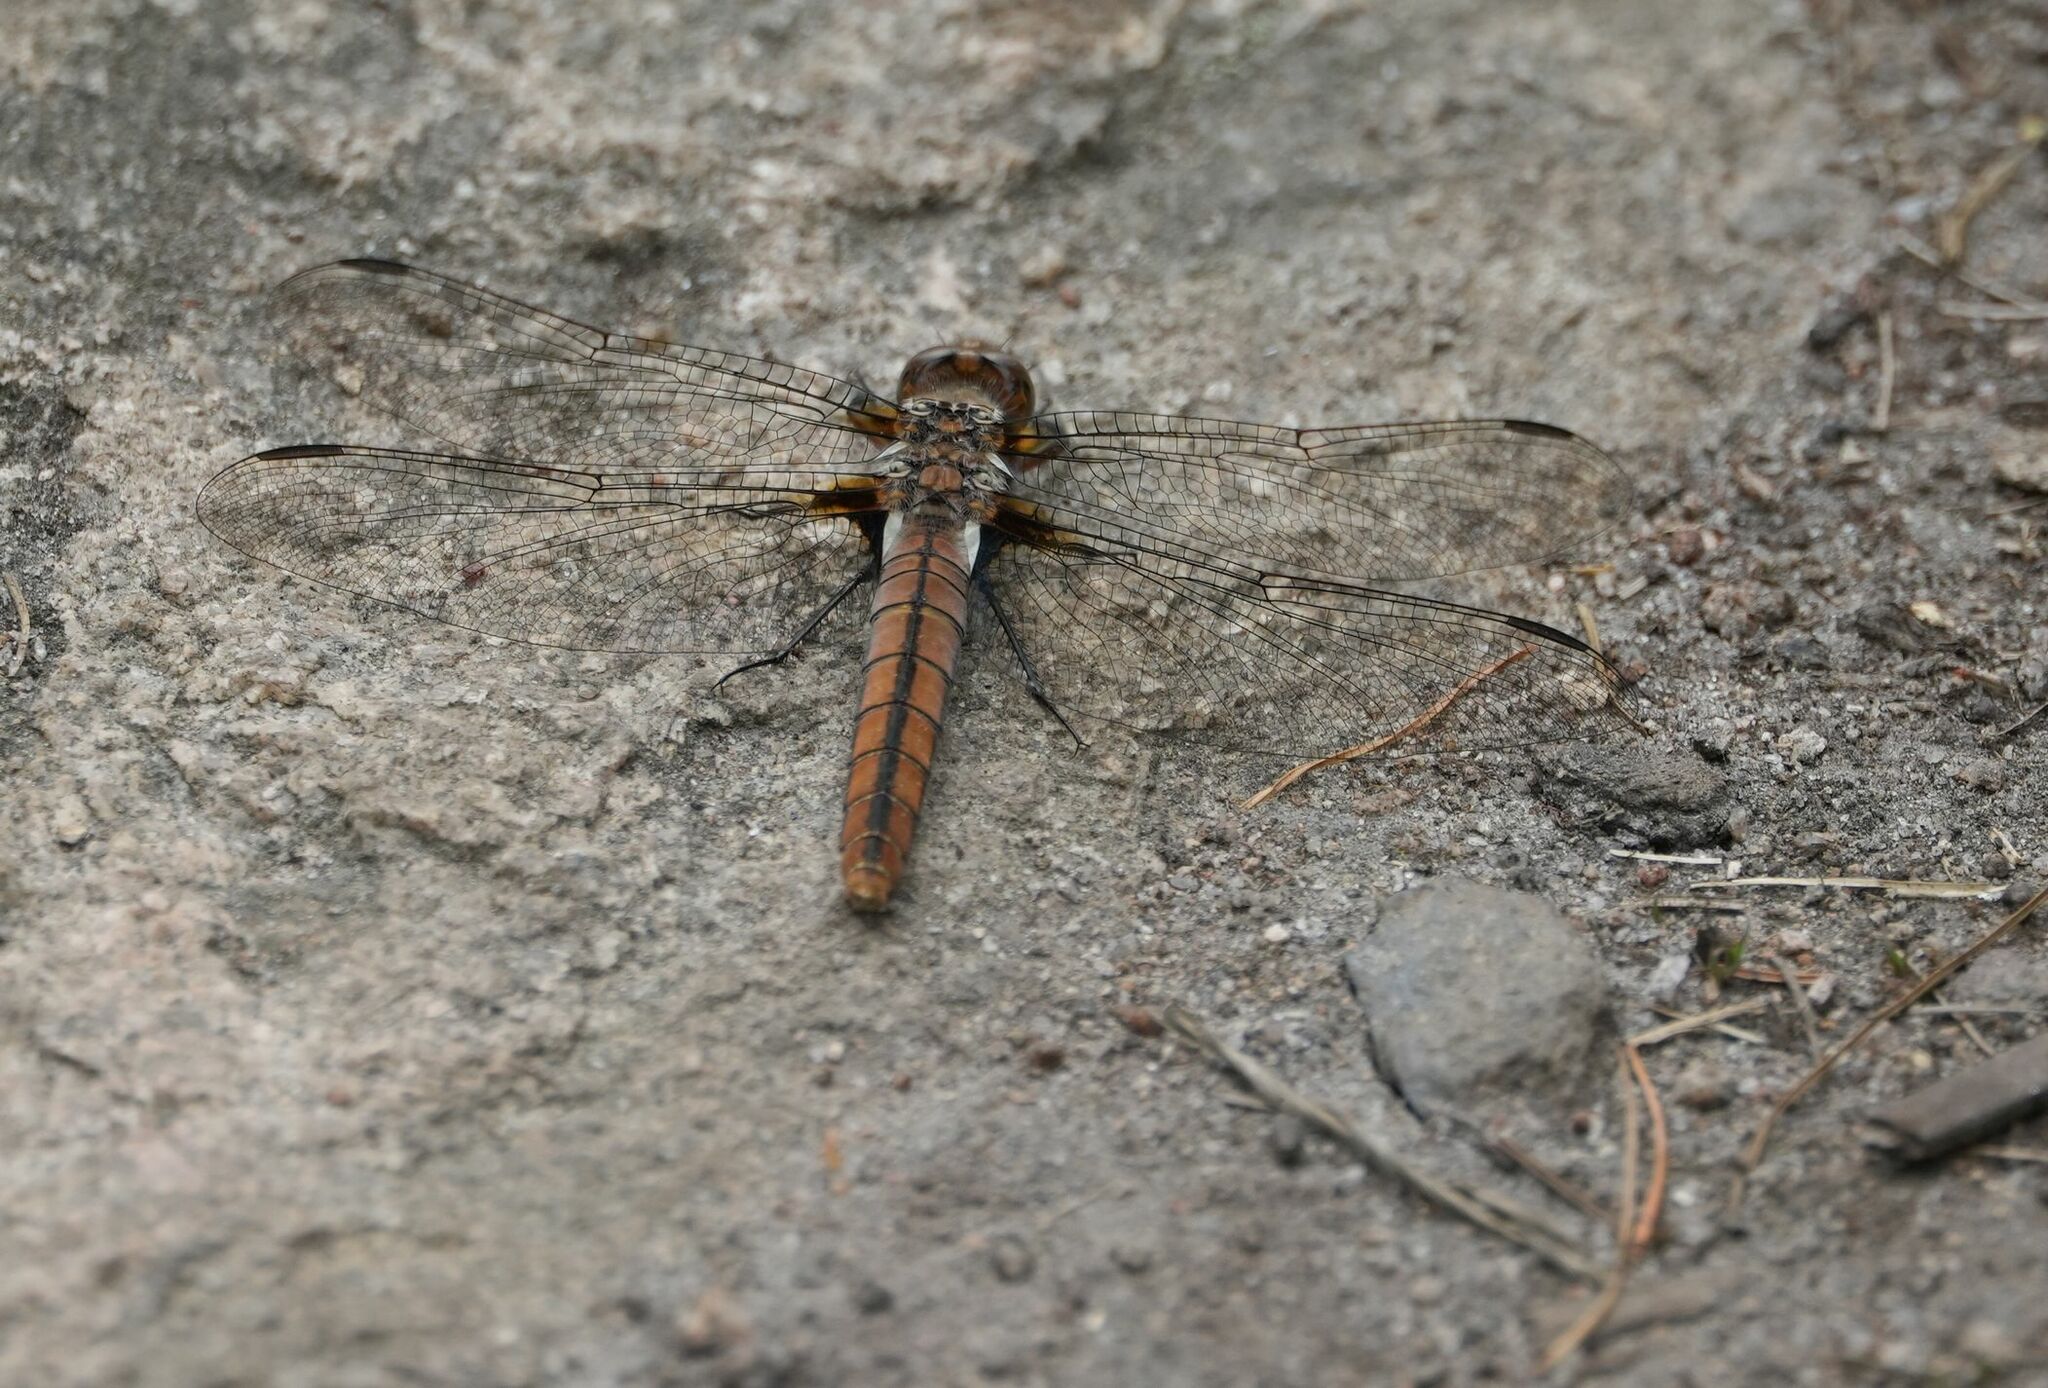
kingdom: Animalia
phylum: Arthropoda
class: Insecta
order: Odonata
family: Libellulidae
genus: Ladona
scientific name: Ladona julia
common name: Chalk-fronted corporal
